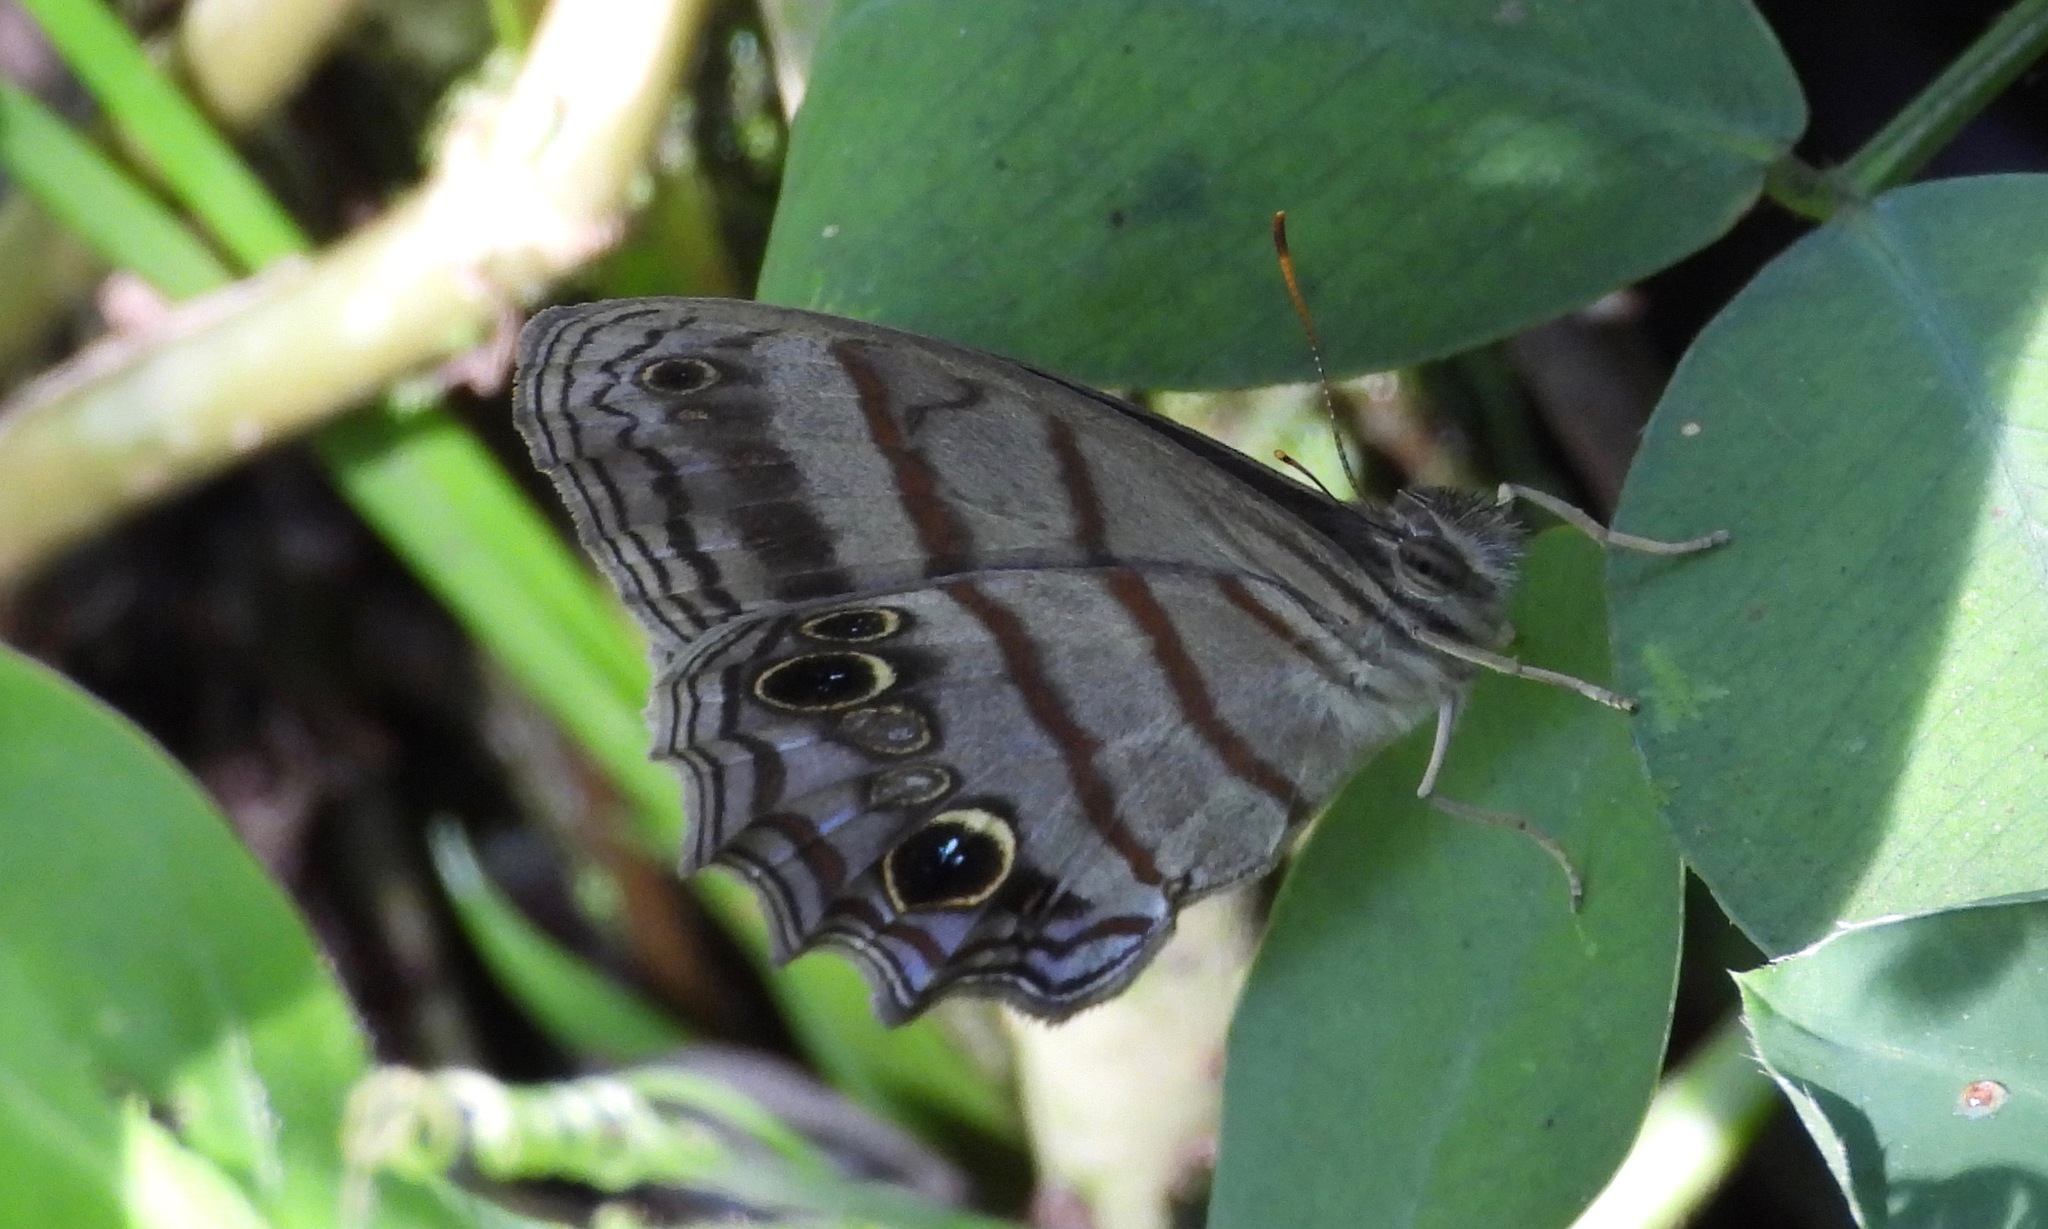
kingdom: Animalia
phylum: Arthropoda
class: Insecta
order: Lepidoptera
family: Nymphalidae
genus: Magneuptychia
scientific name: Magneuptychia libye
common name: Blue-gray satyr
